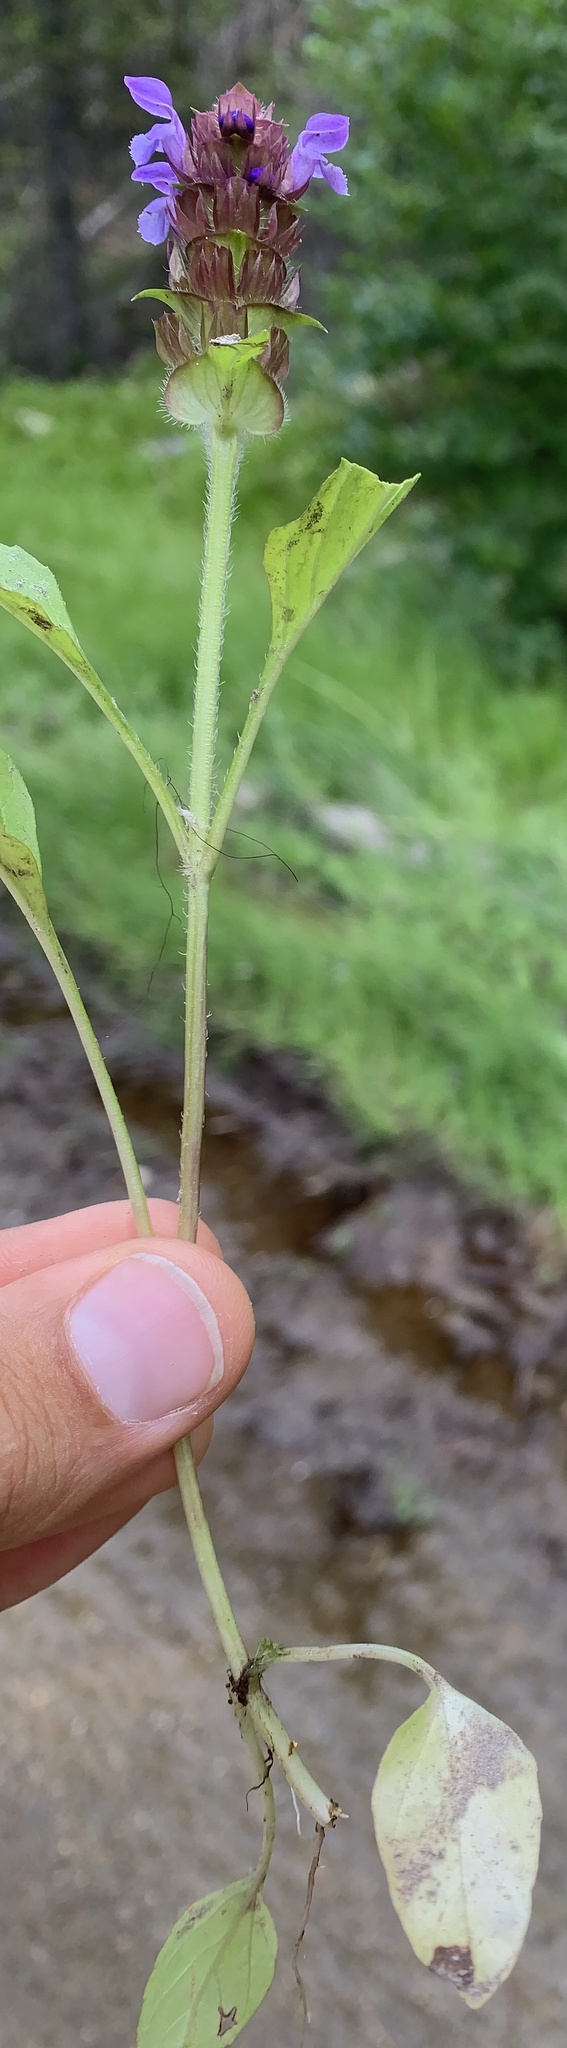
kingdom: Plantae
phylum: Tracheophyta
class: Magnoliopsida
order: Lamiales
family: Lamiaceae
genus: Prunella
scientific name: Prunella vulgaris
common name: Heal-all
